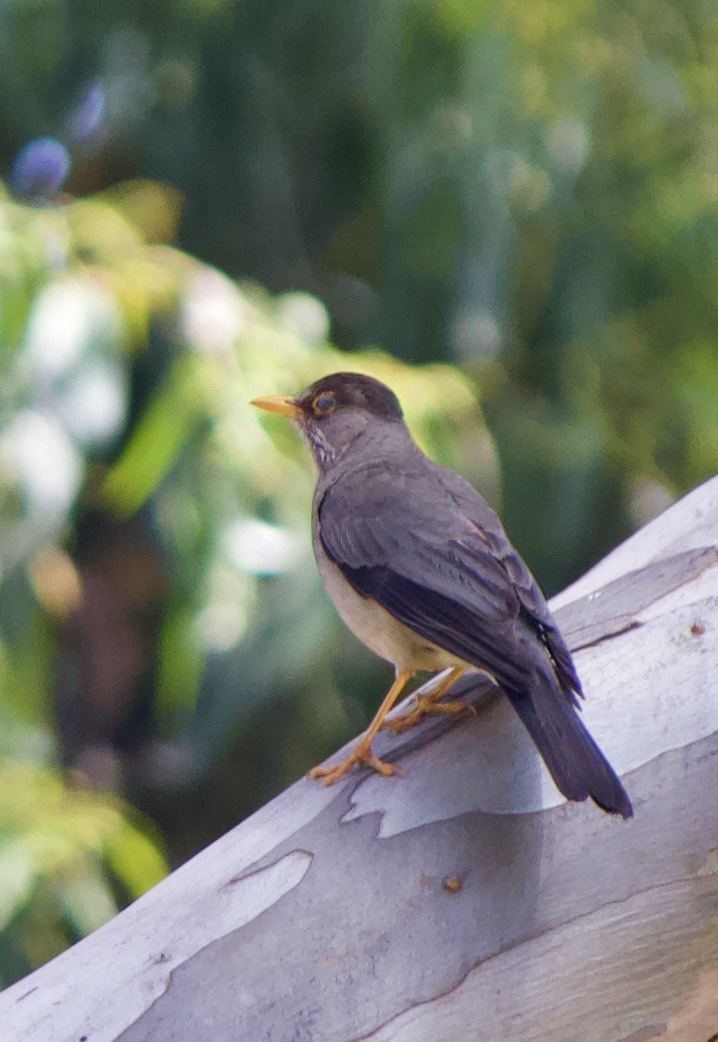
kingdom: Animalia
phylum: Chordata
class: Aves
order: Passeriformes
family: Turdidae
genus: Turdus
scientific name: Turdus falcklandii
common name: Austral thrush
